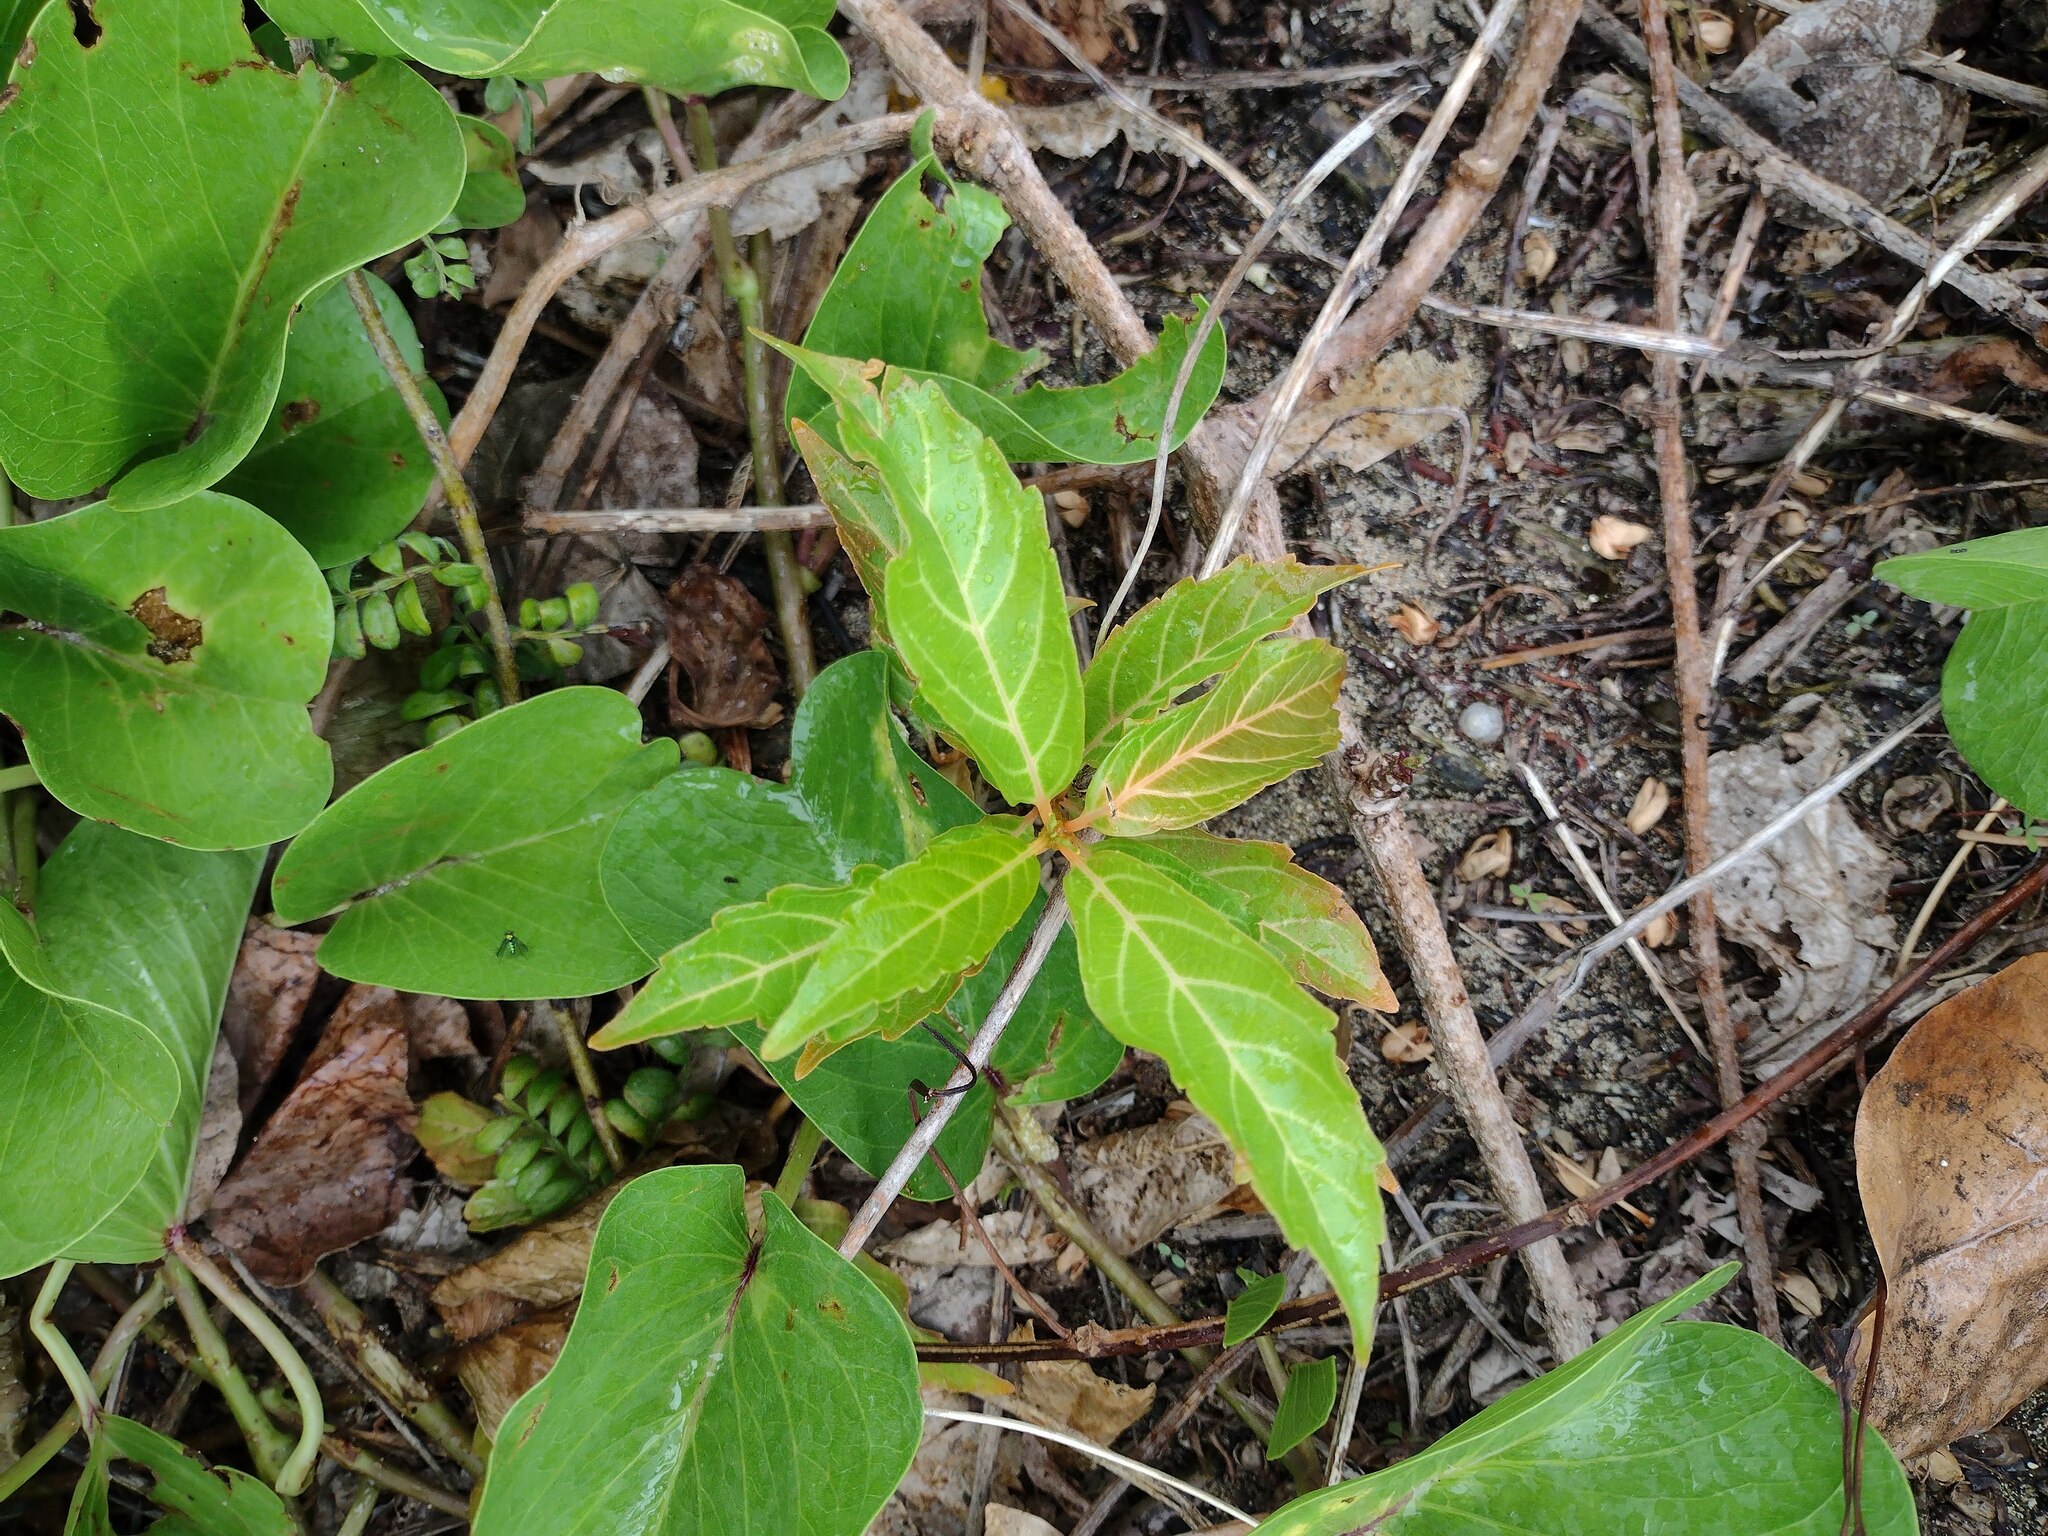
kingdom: Plantae
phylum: Tracheophyta
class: Magnoliopsida
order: Lamiales
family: Verbenaceae
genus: Citharexylum
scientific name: Citharexylum spinosum
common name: Fiddlewood
